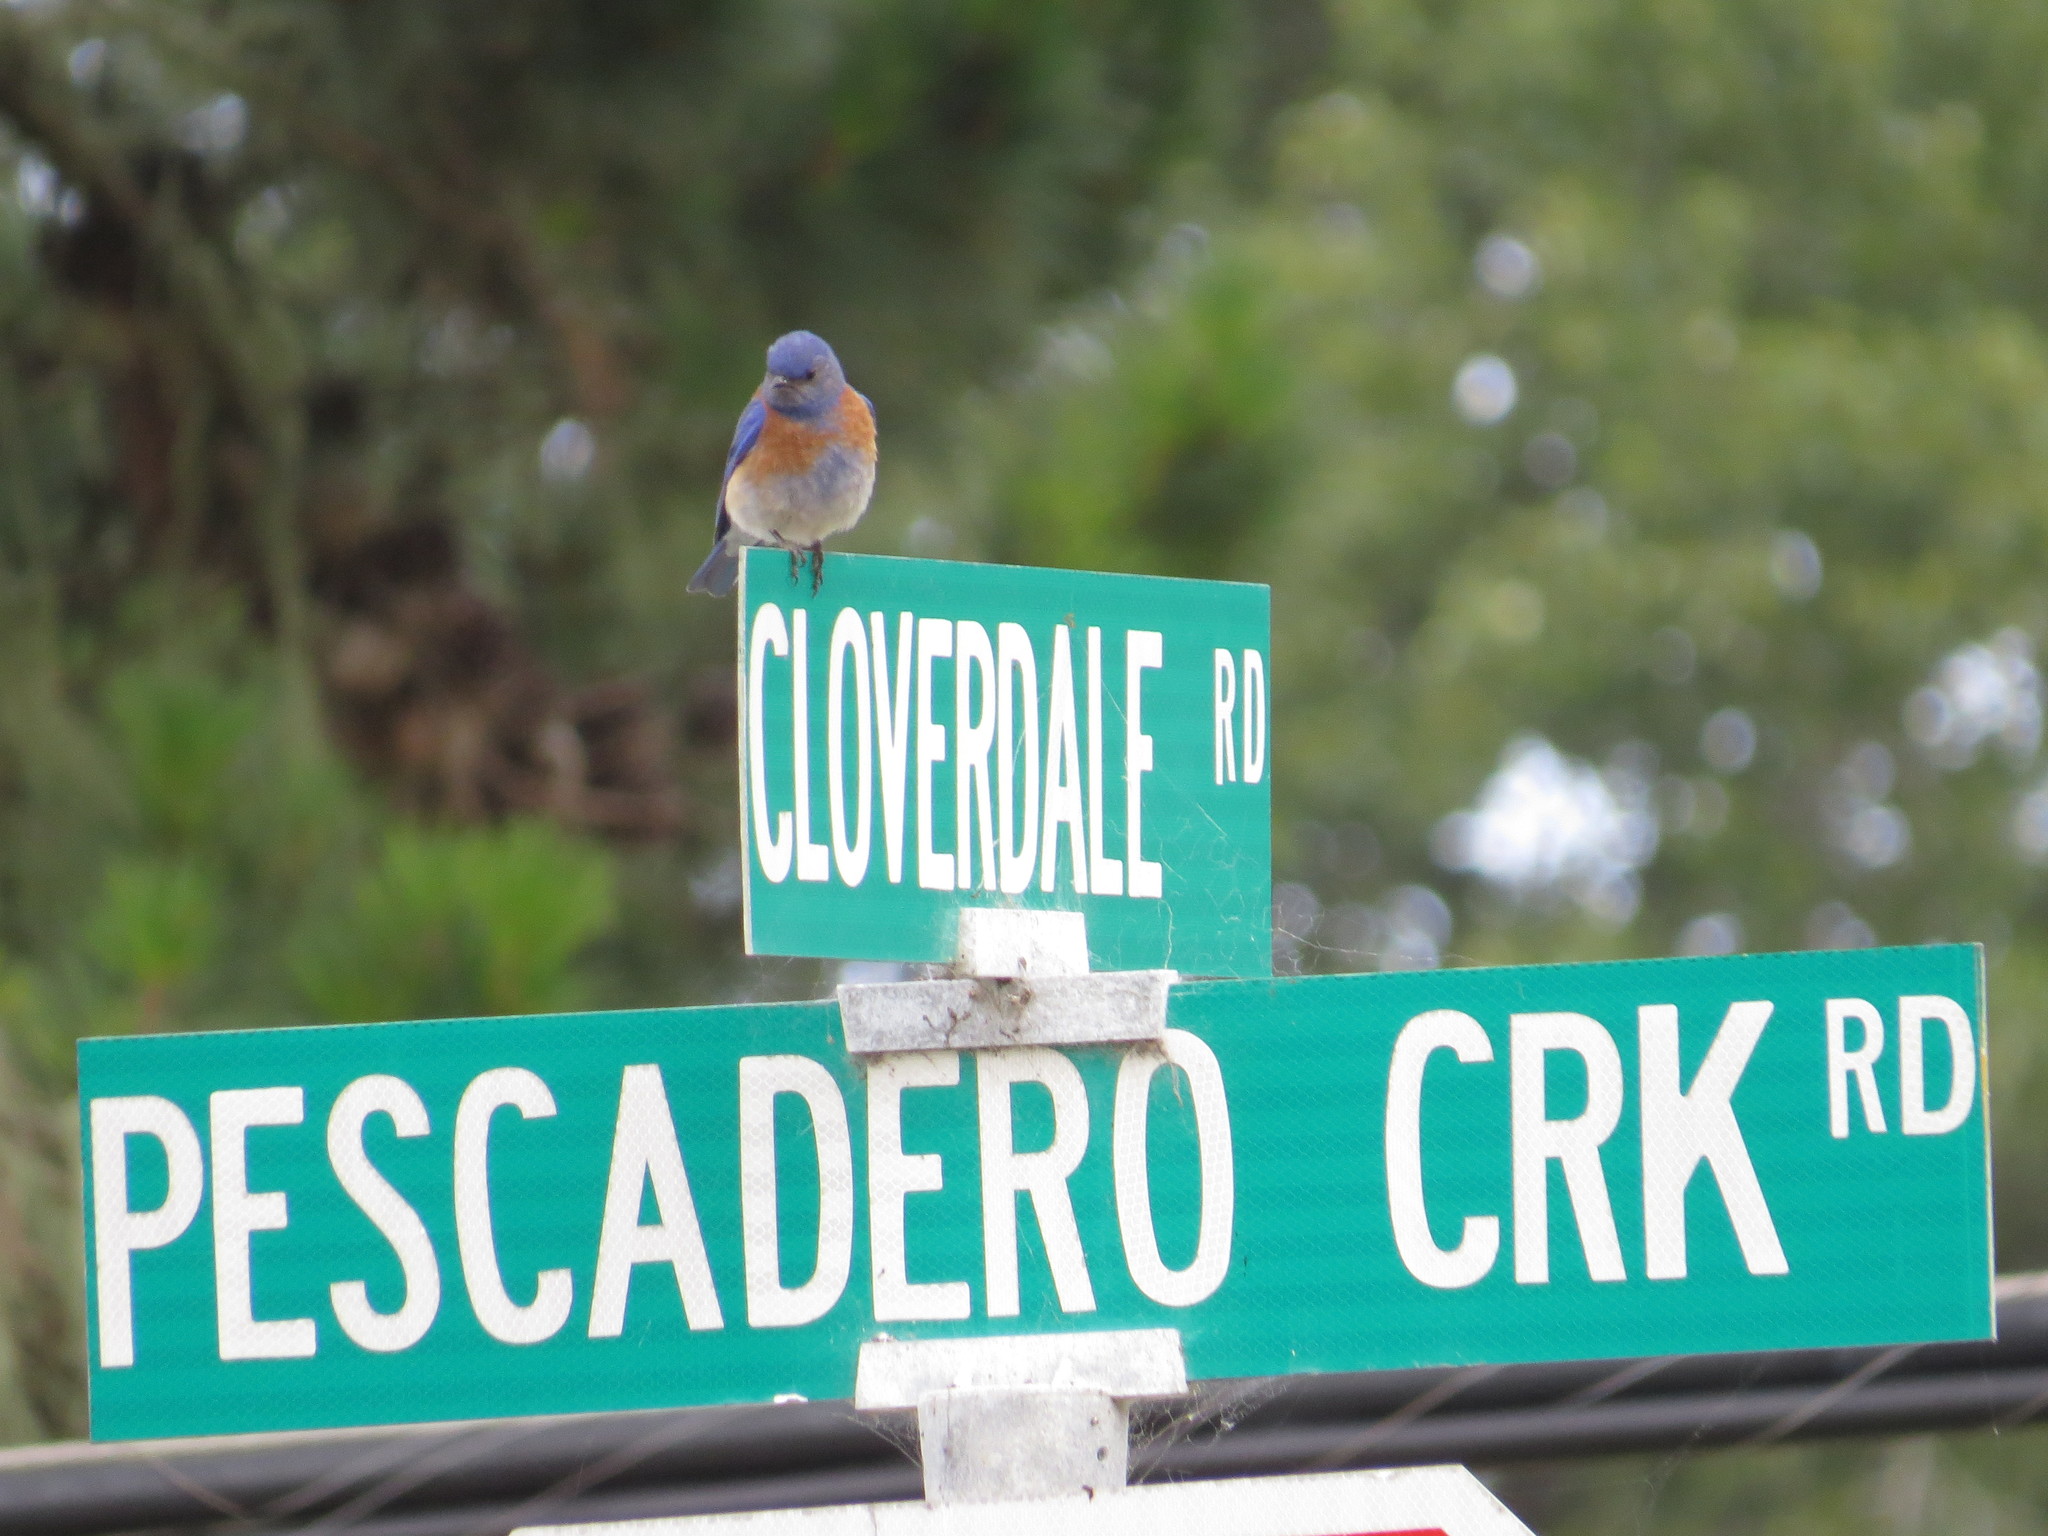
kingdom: Animalia
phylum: Chordata
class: Aves
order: Passeriformes
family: Turdidae
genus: Sialia
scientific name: Sialia mexicana
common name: Western bluebird
